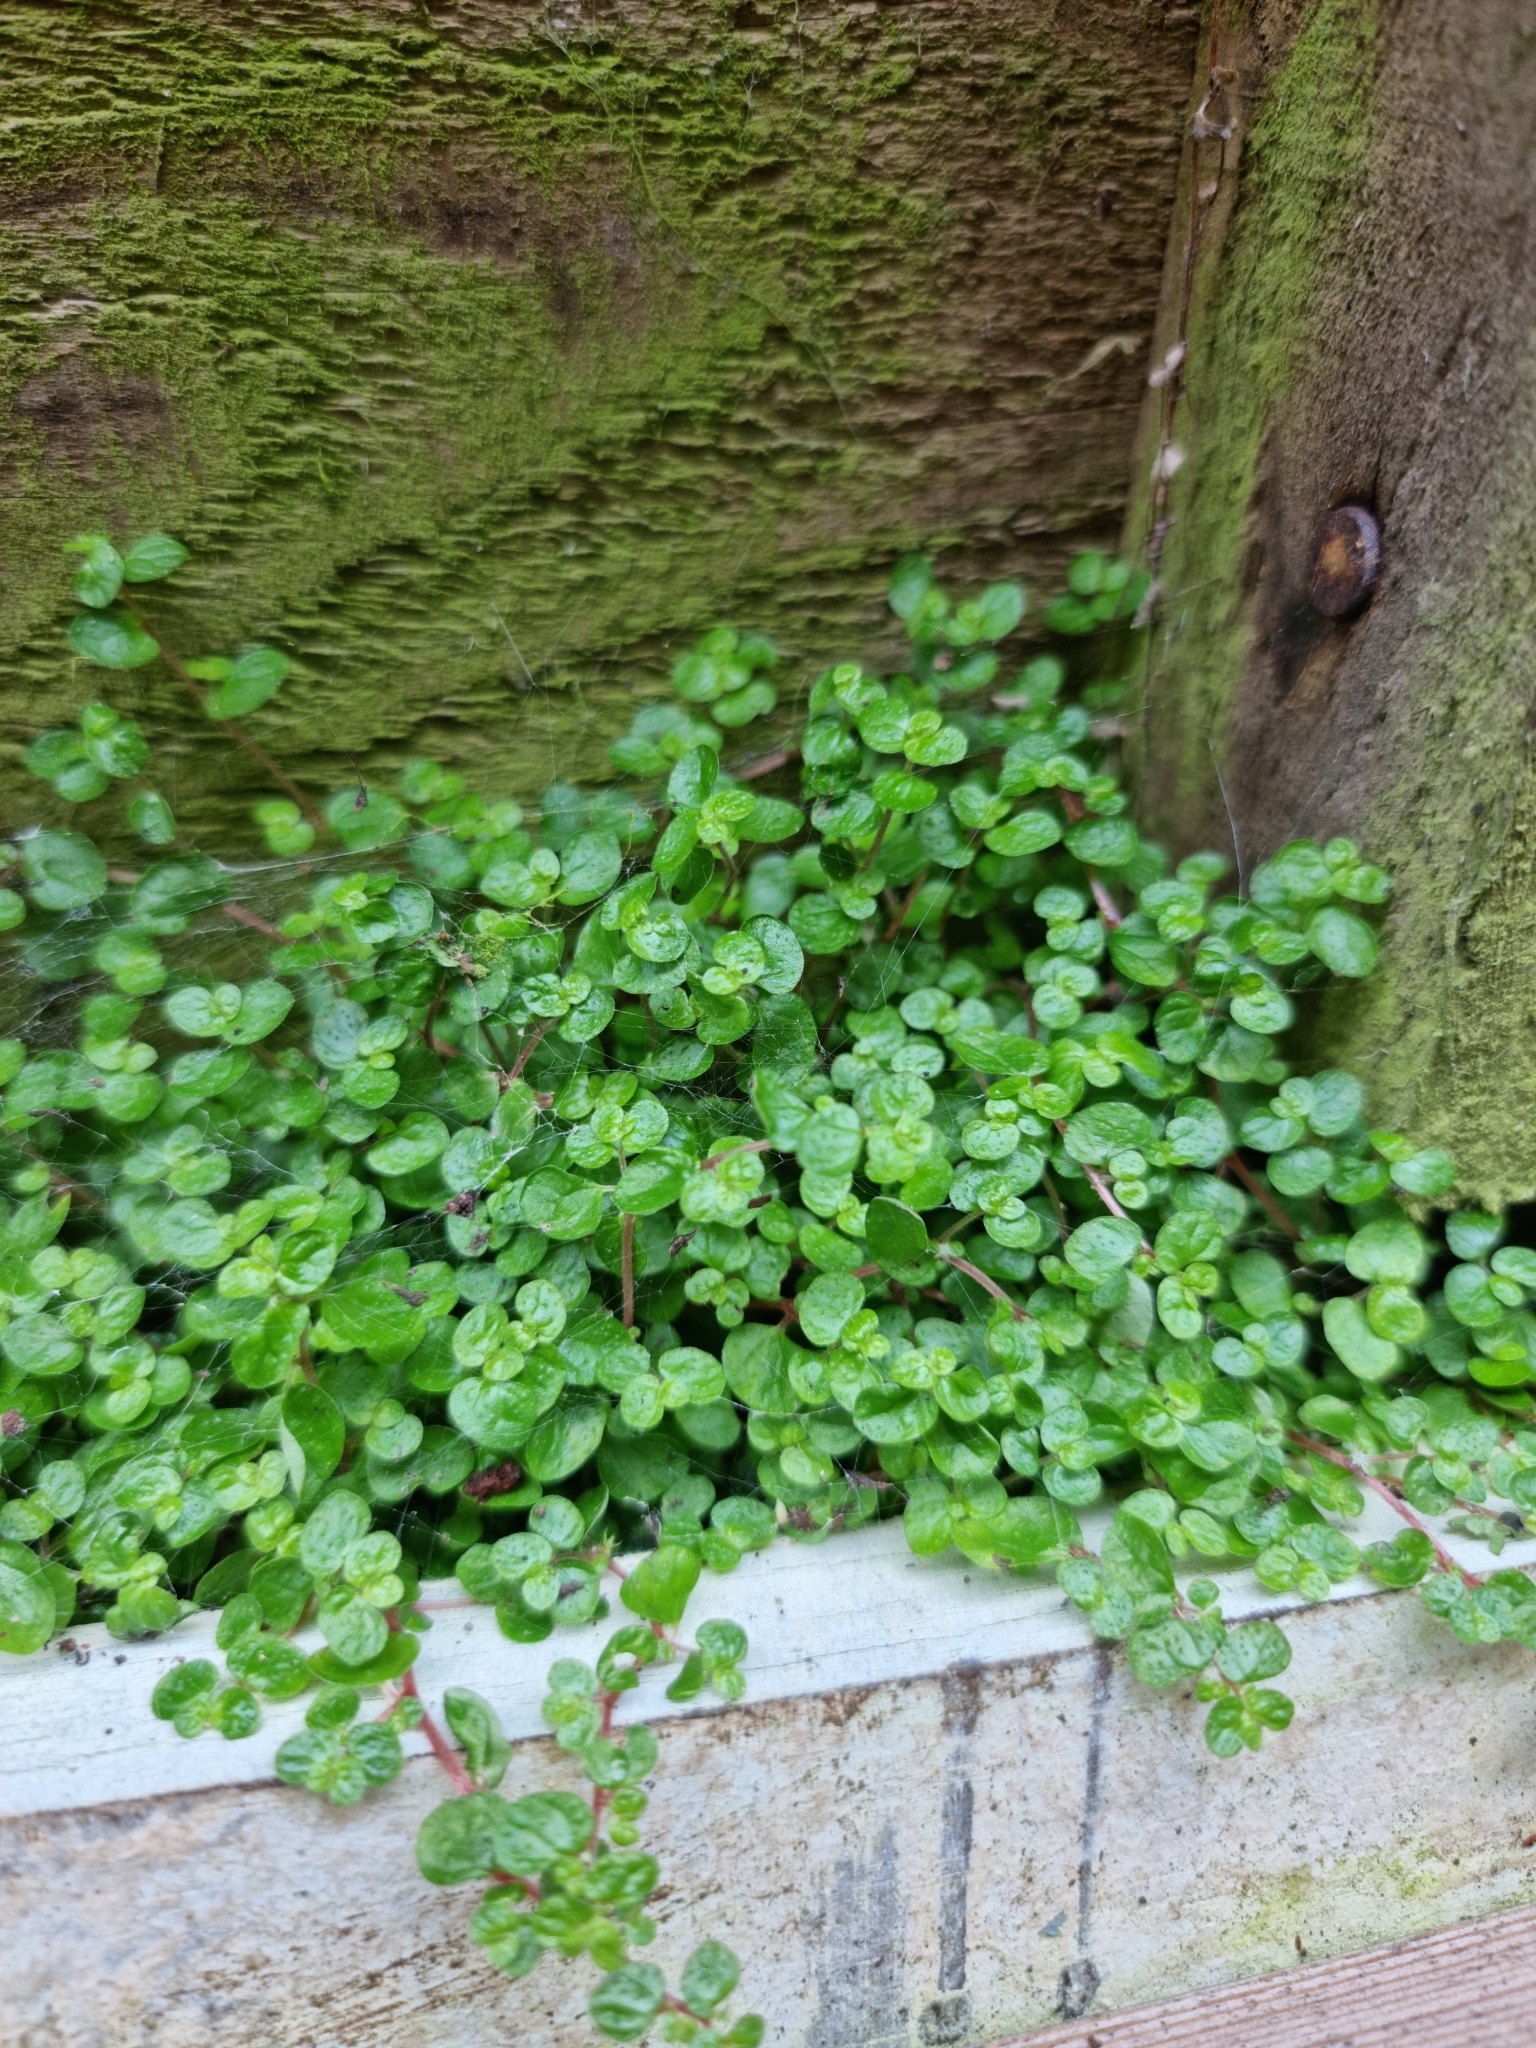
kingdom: Plantae
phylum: Tracheophyta
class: Magnoliopsida
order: Rosales
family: Urticaceae
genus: Soleirolia
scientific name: Soleirolia soleirolii
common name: Mind-your-own-business
